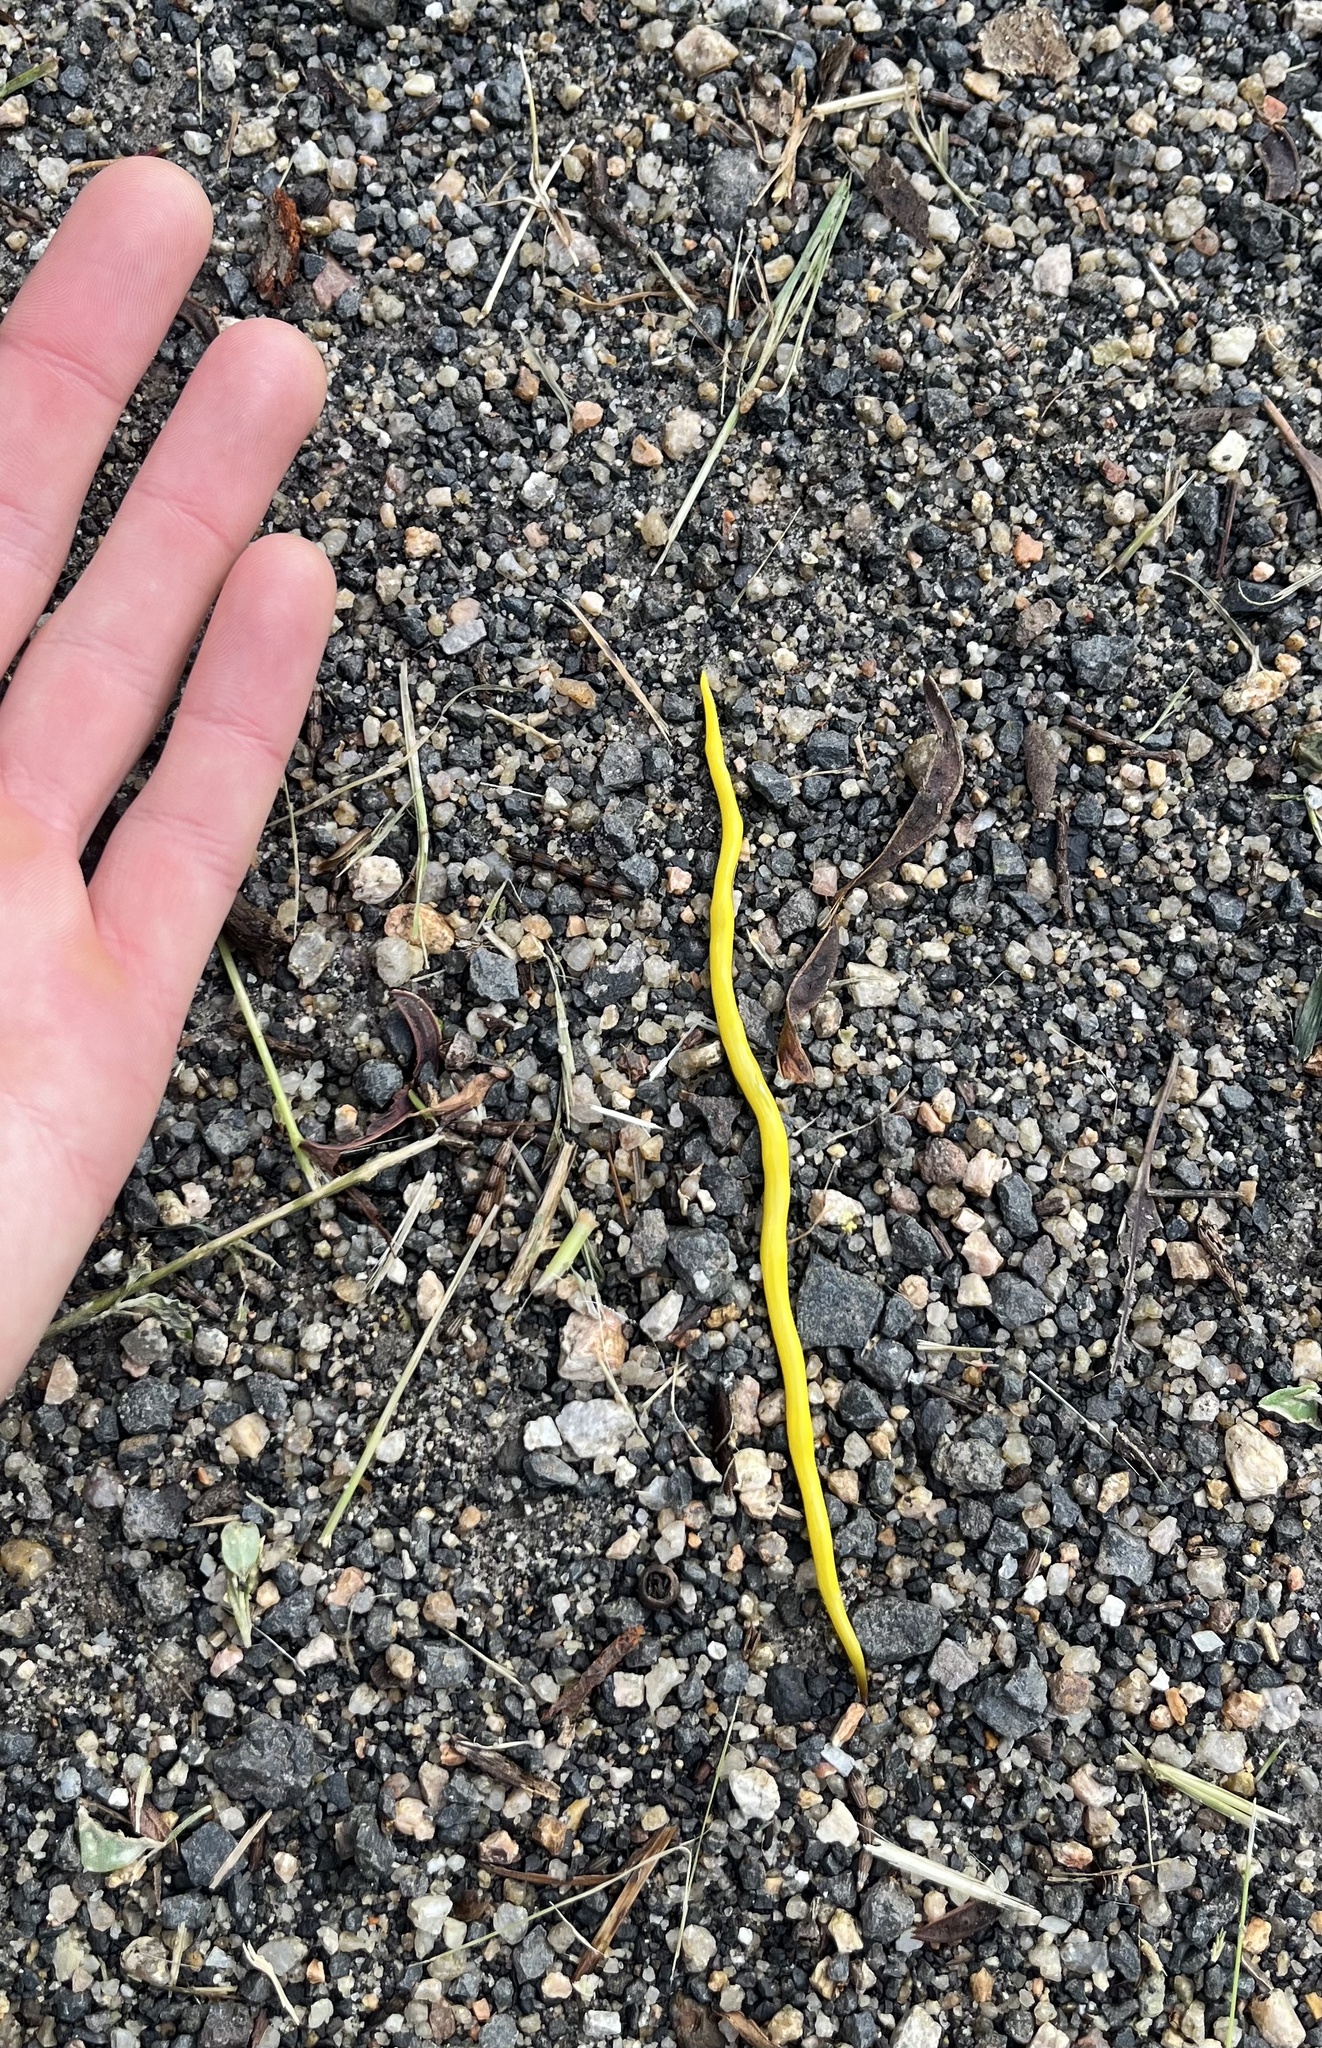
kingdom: Animalia
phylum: Platyhelminthes
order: Tricladida
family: Geoplanidae
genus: Fletchamia
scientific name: Fletchamia sugdeni
